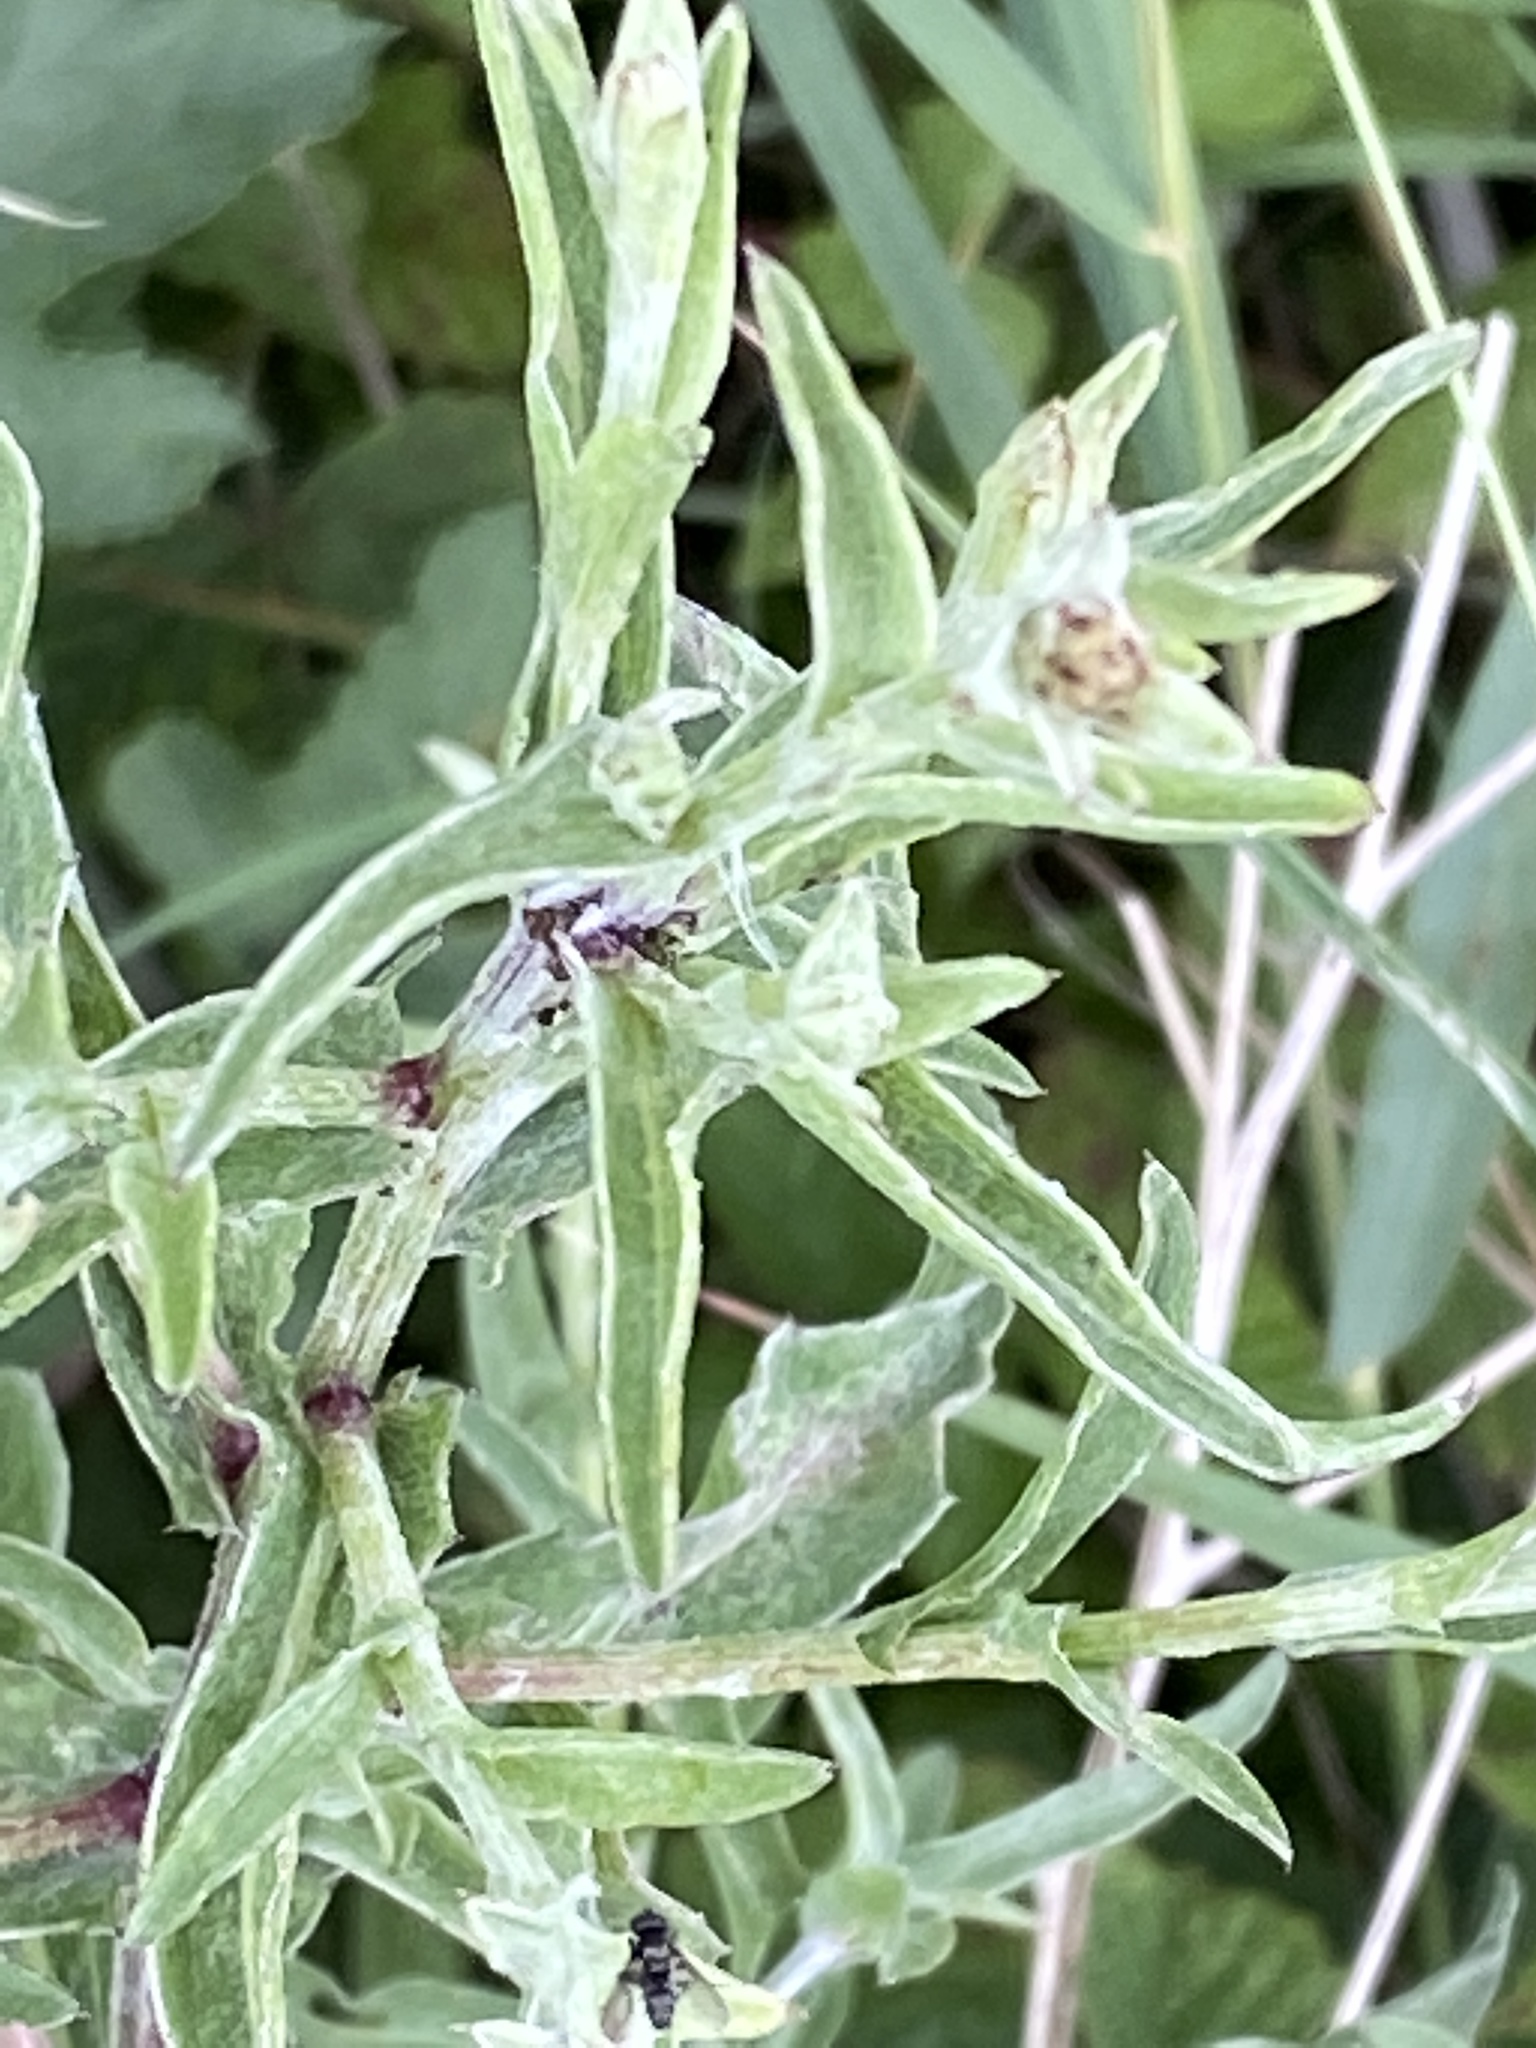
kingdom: Plantae
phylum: Tracheophyta
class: Magnoliopsida
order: Asterales
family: Asteraceae
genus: Centaurea
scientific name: Centaurea nigra
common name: Lesser knapweed
